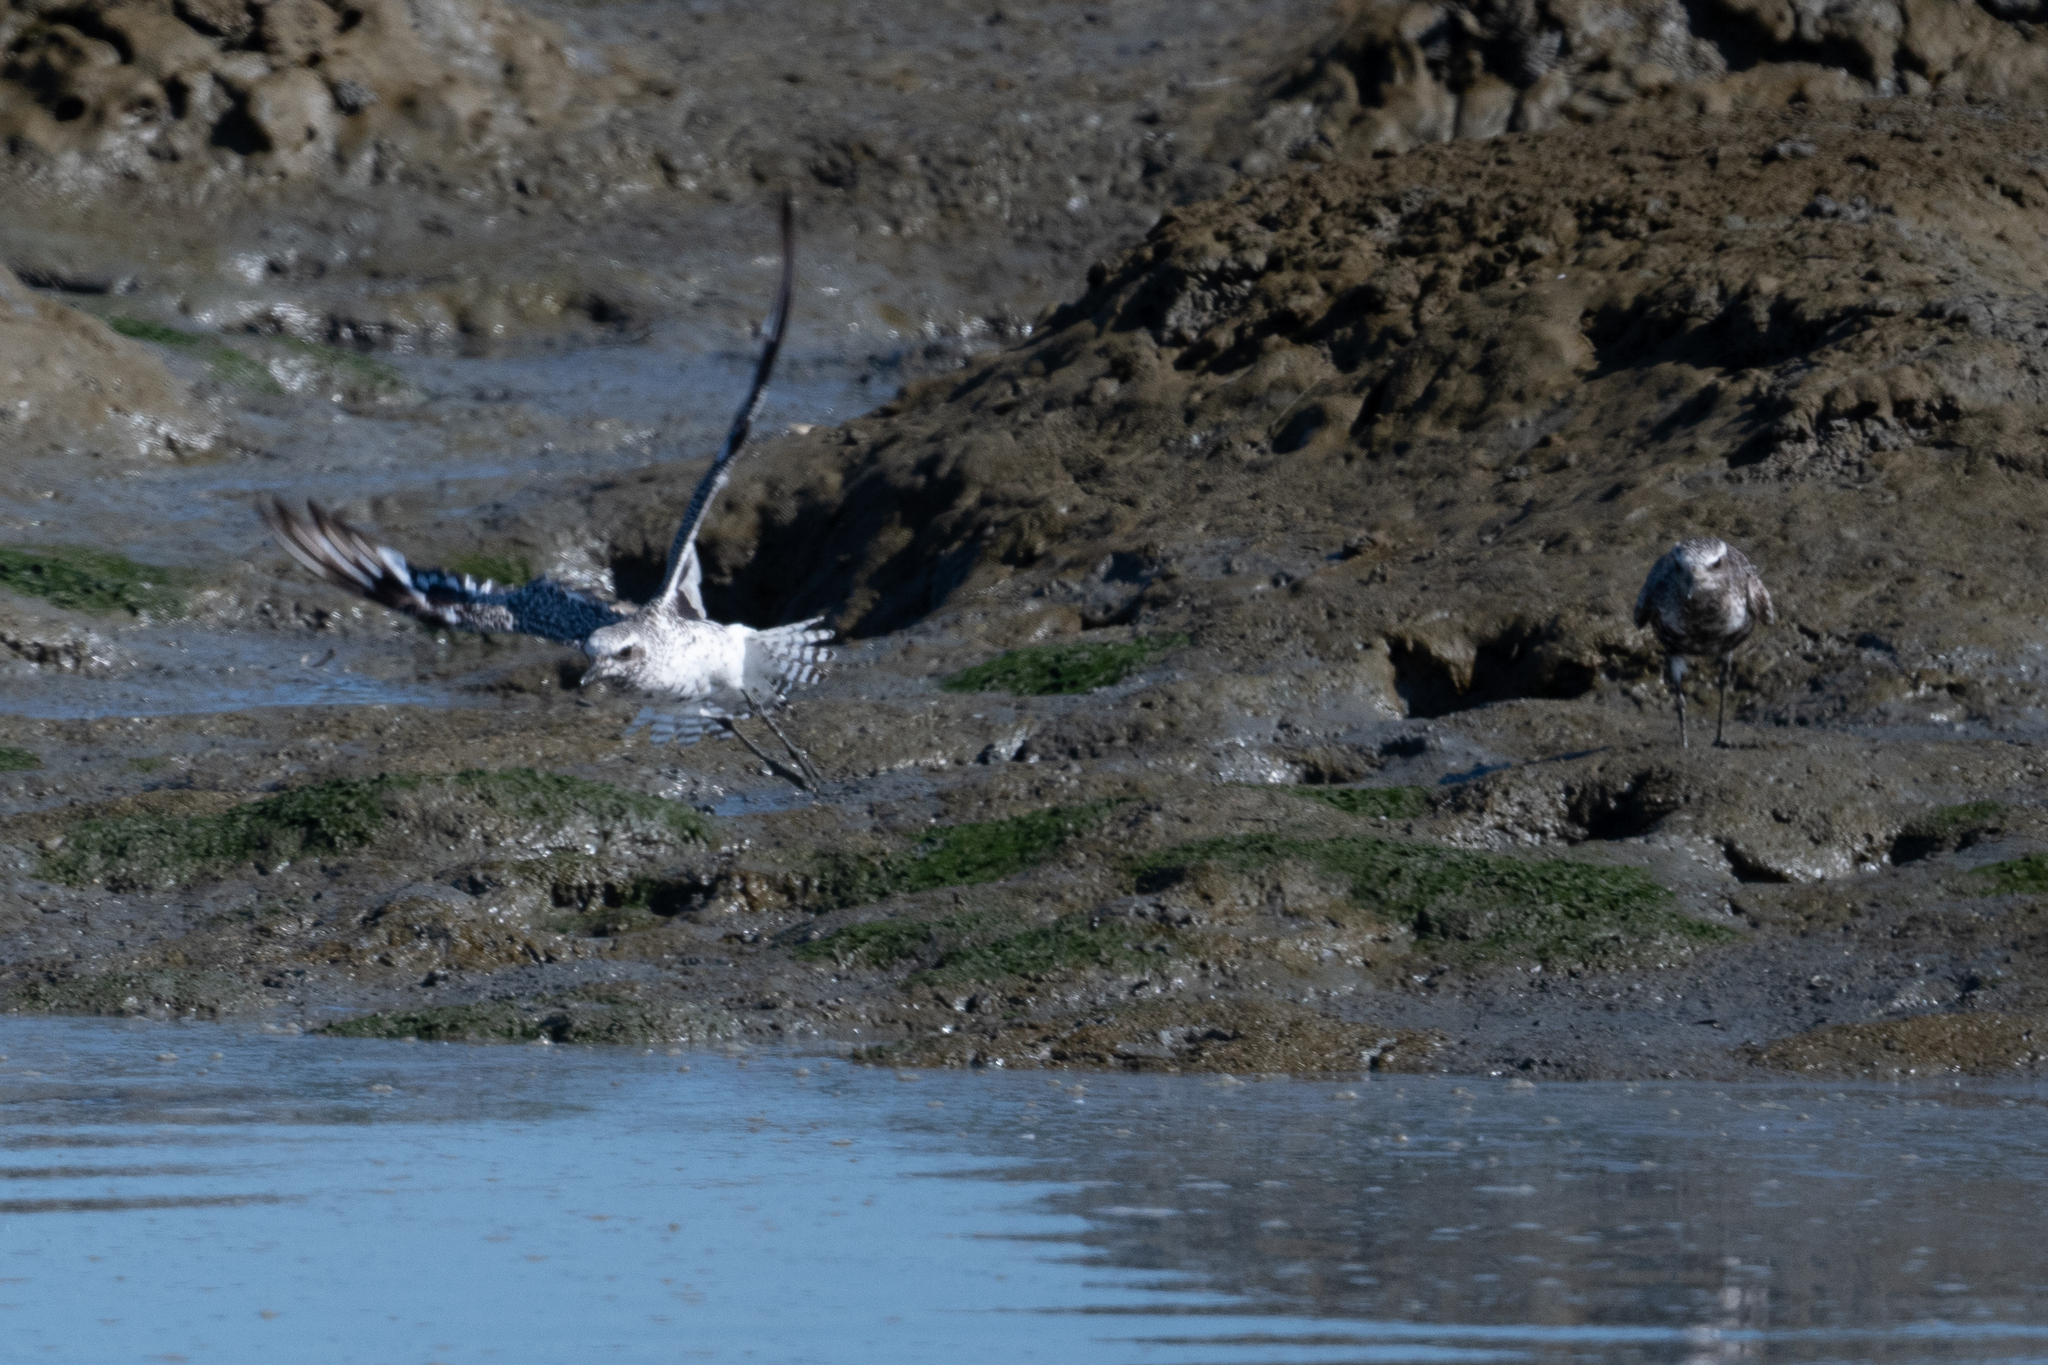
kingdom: Animalia
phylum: Chordata
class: Aves
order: Charadriiformes
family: Charadriidae
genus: Pluvialis
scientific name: Pluvialis squatarola
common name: Grey plover
